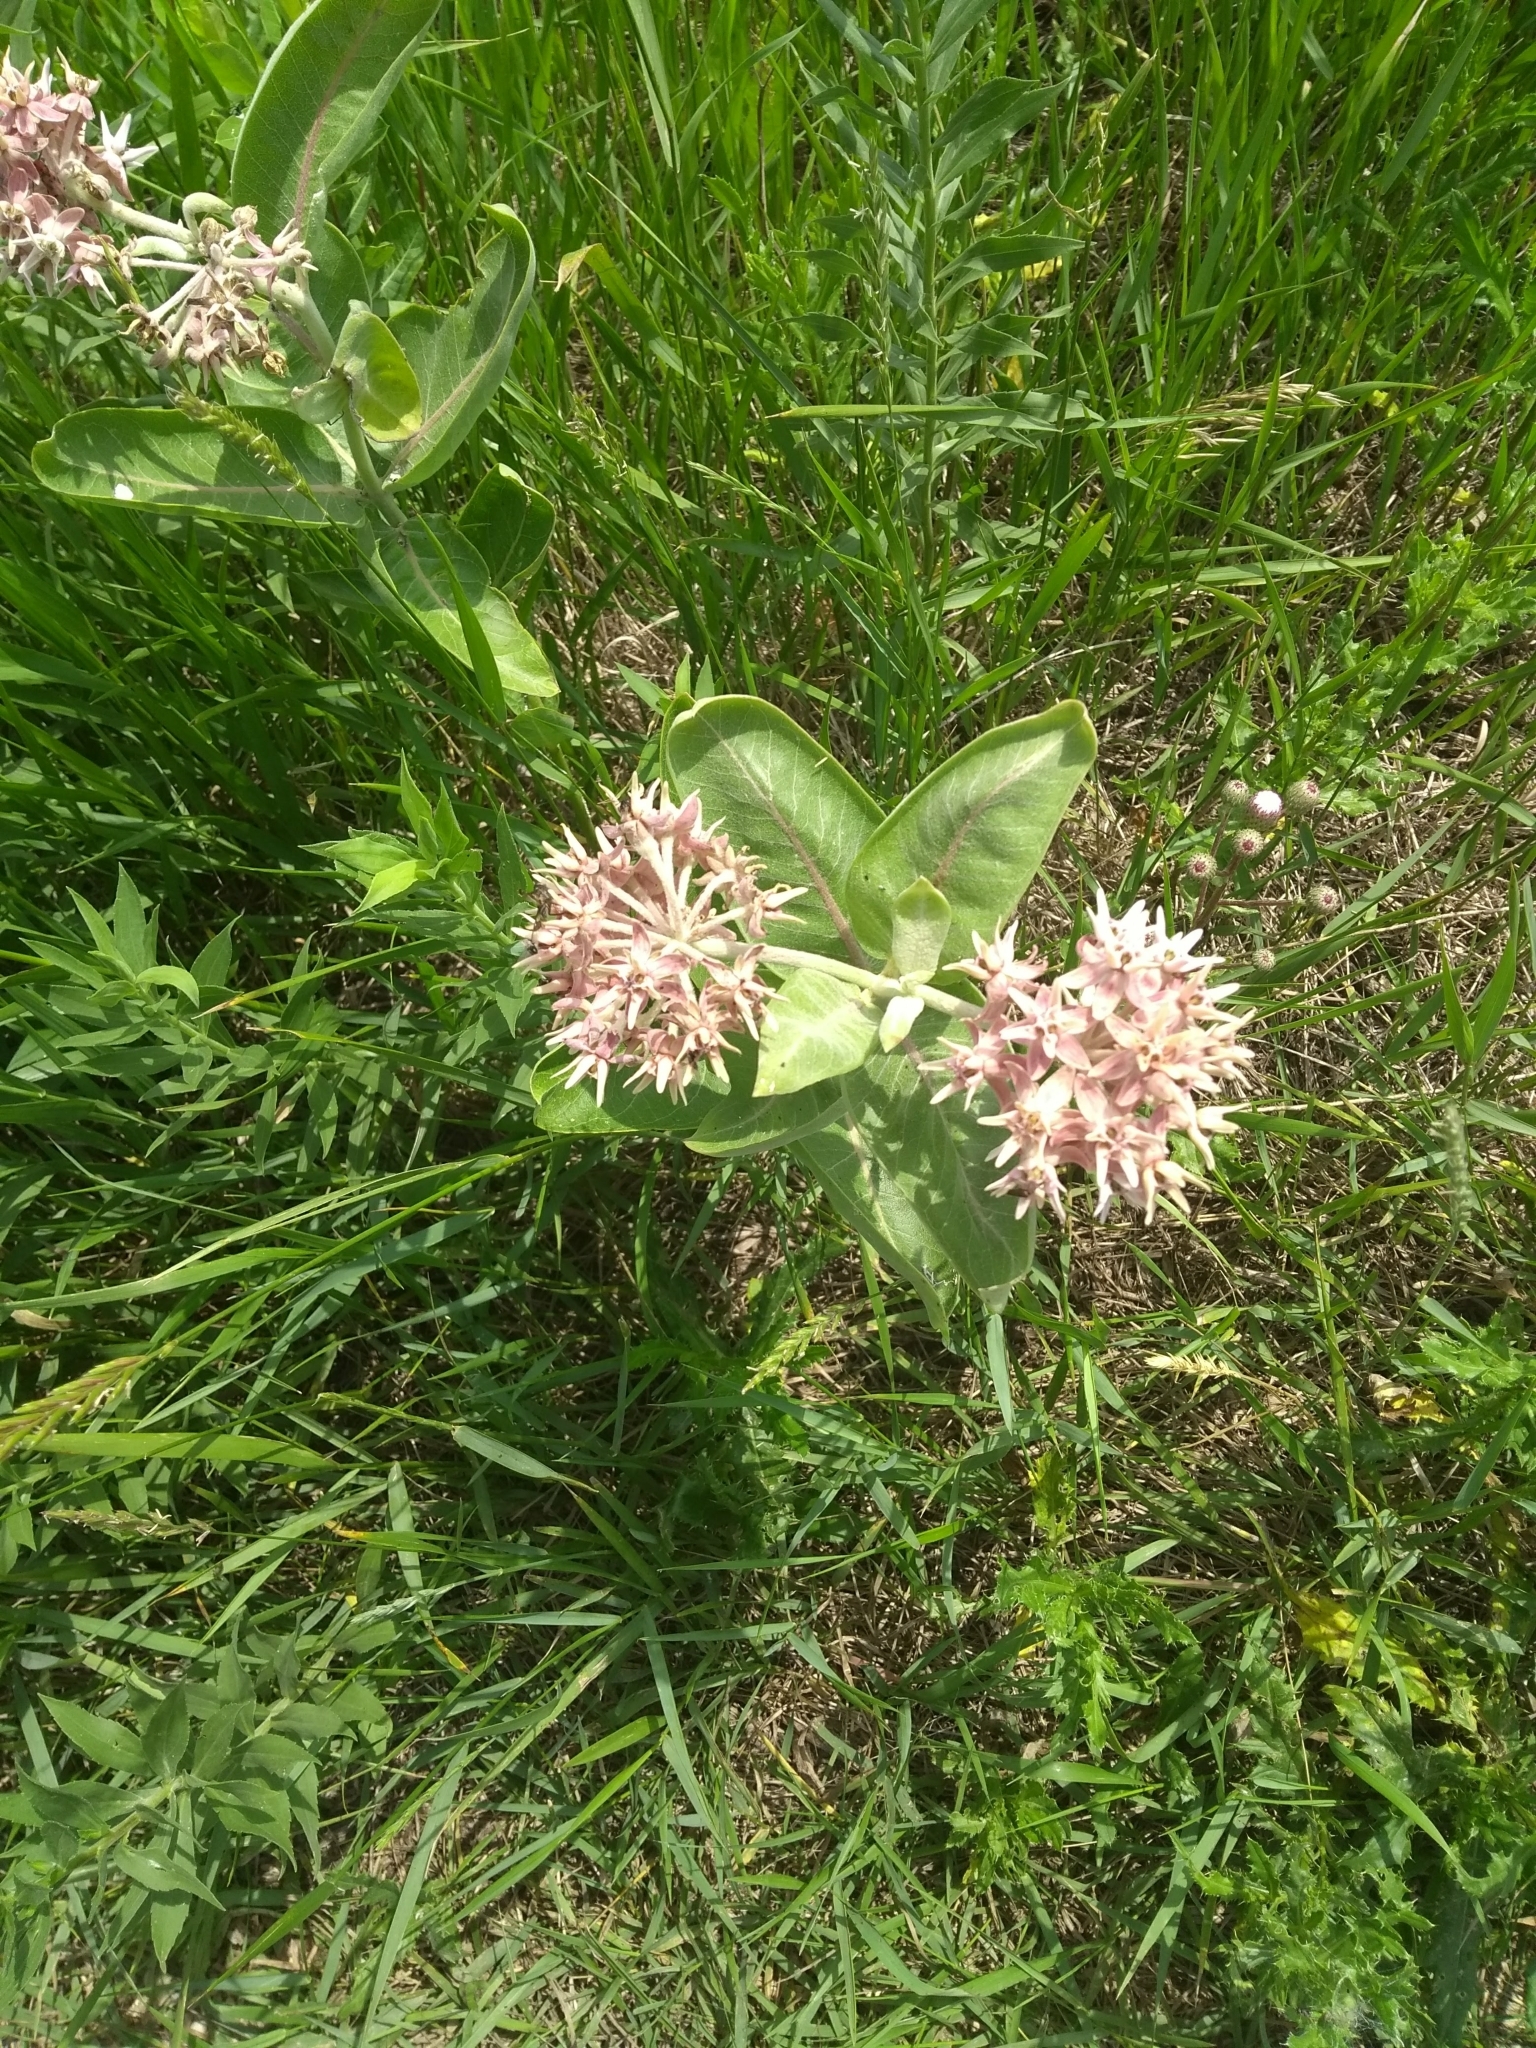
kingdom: Plantae
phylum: Tracheophyta
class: Magnoliopsida
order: Gentianales
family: Apocynaceae
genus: Asclepias
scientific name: Asclepias speciosa
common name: Showy milkweed
